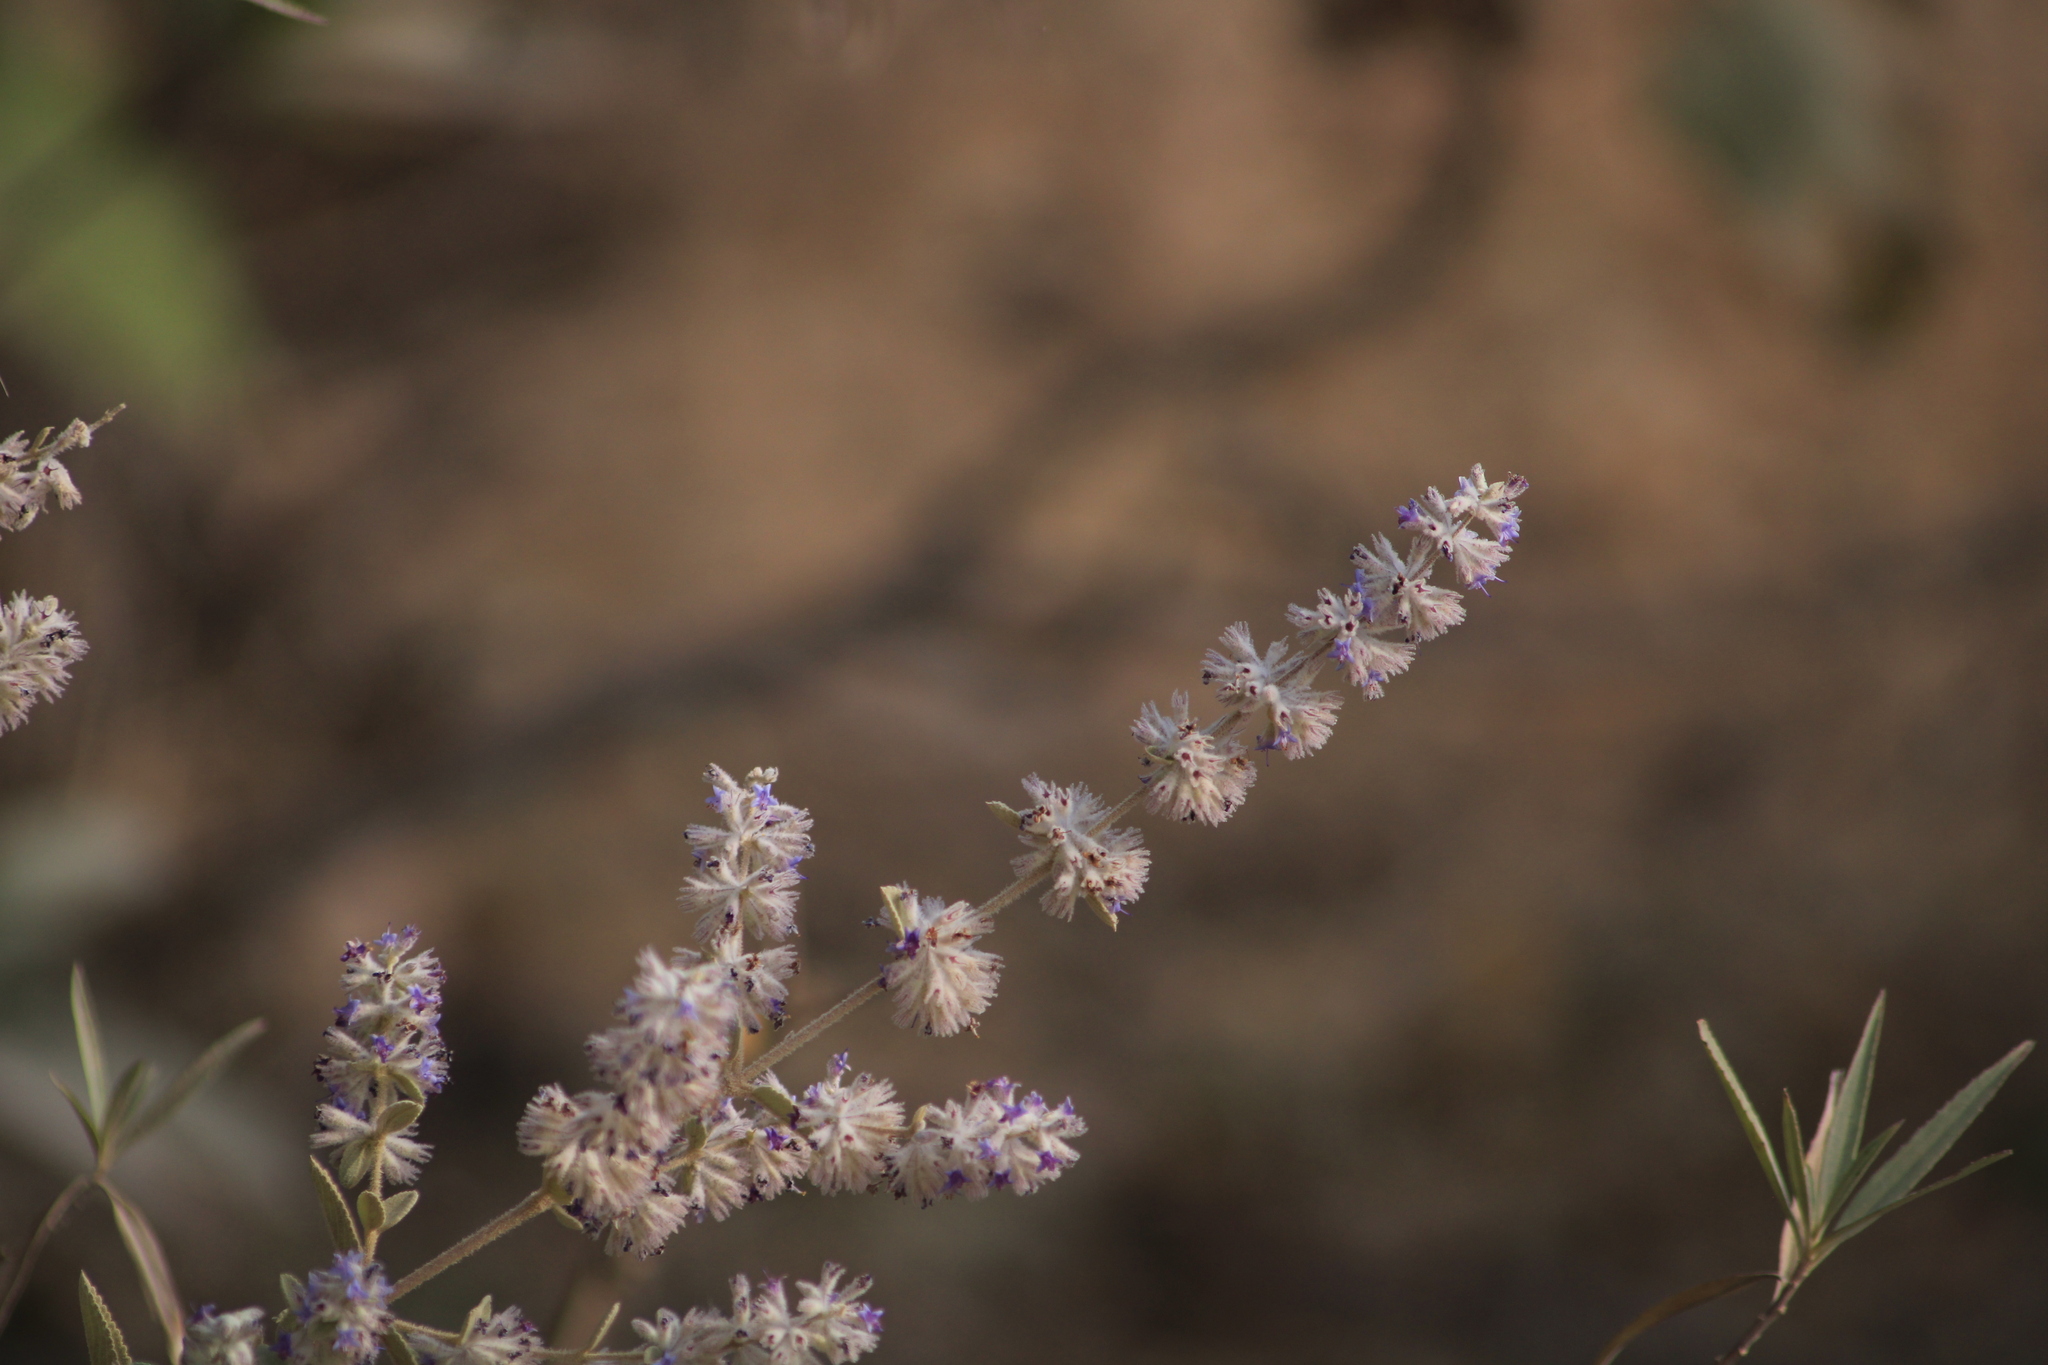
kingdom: Plantae
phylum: Tracheophyta
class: Magnoliopsida
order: Lamiales
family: Lamiaceae
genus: Condea
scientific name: Condea albida
